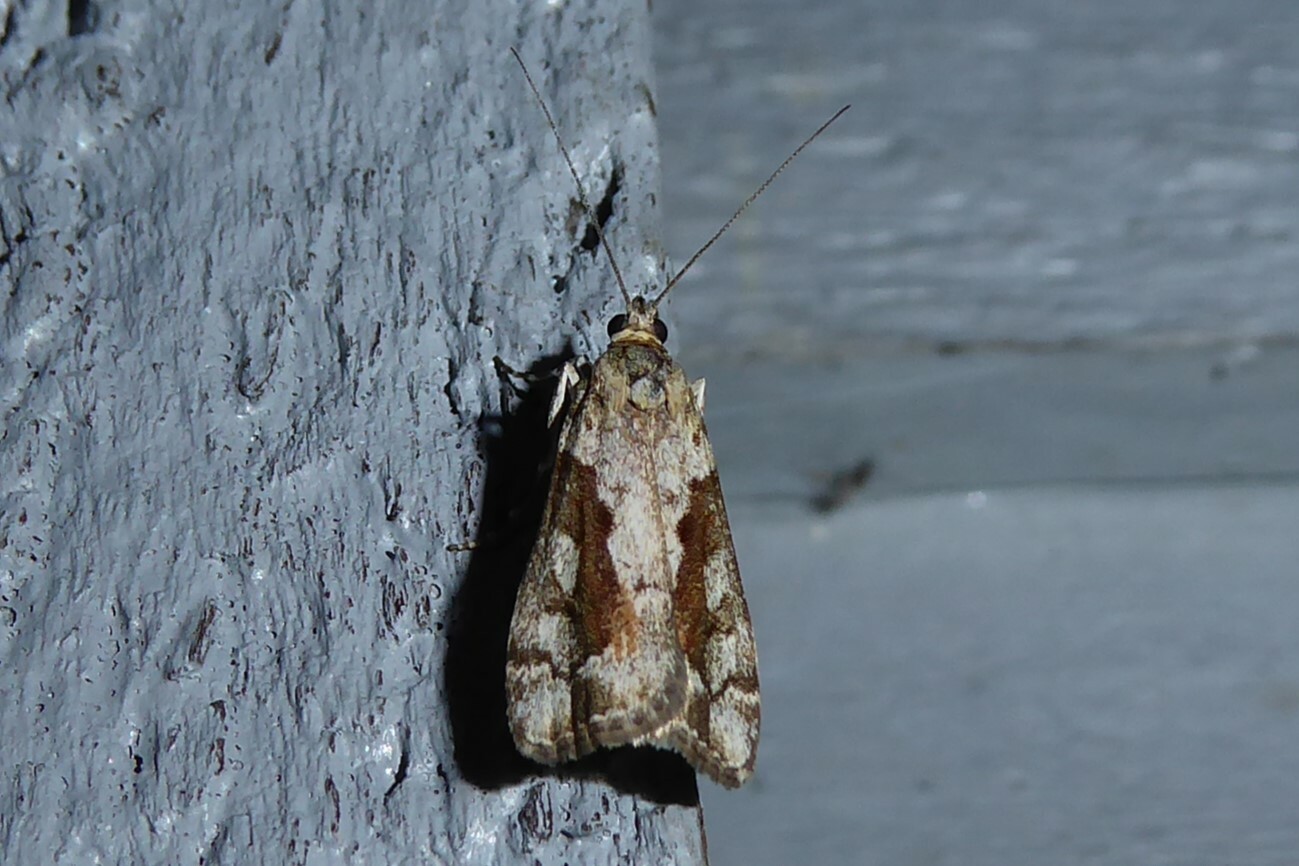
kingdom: Animalia
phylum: Arthropoda
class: Insecta
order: Lepidoptera
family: Crambidae
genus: Eudonia
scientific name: Eudonia submarginalis
